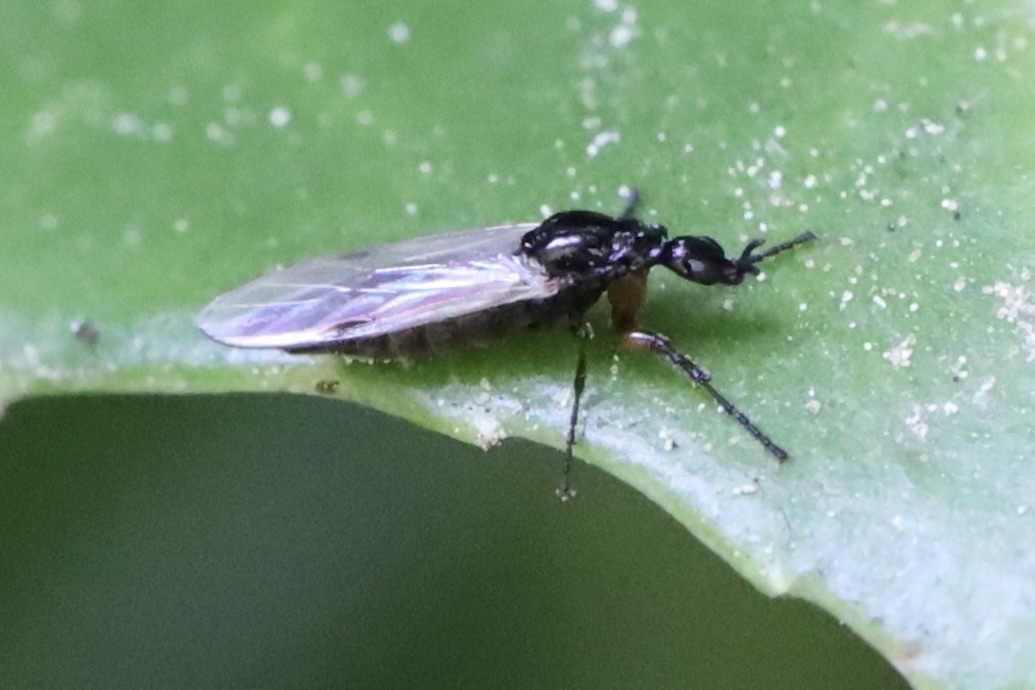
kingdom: Animalia
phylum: Arthropoda
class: Insecta
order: Diptera
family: Bibionidae
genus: Dilophus
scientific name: Dilophus
